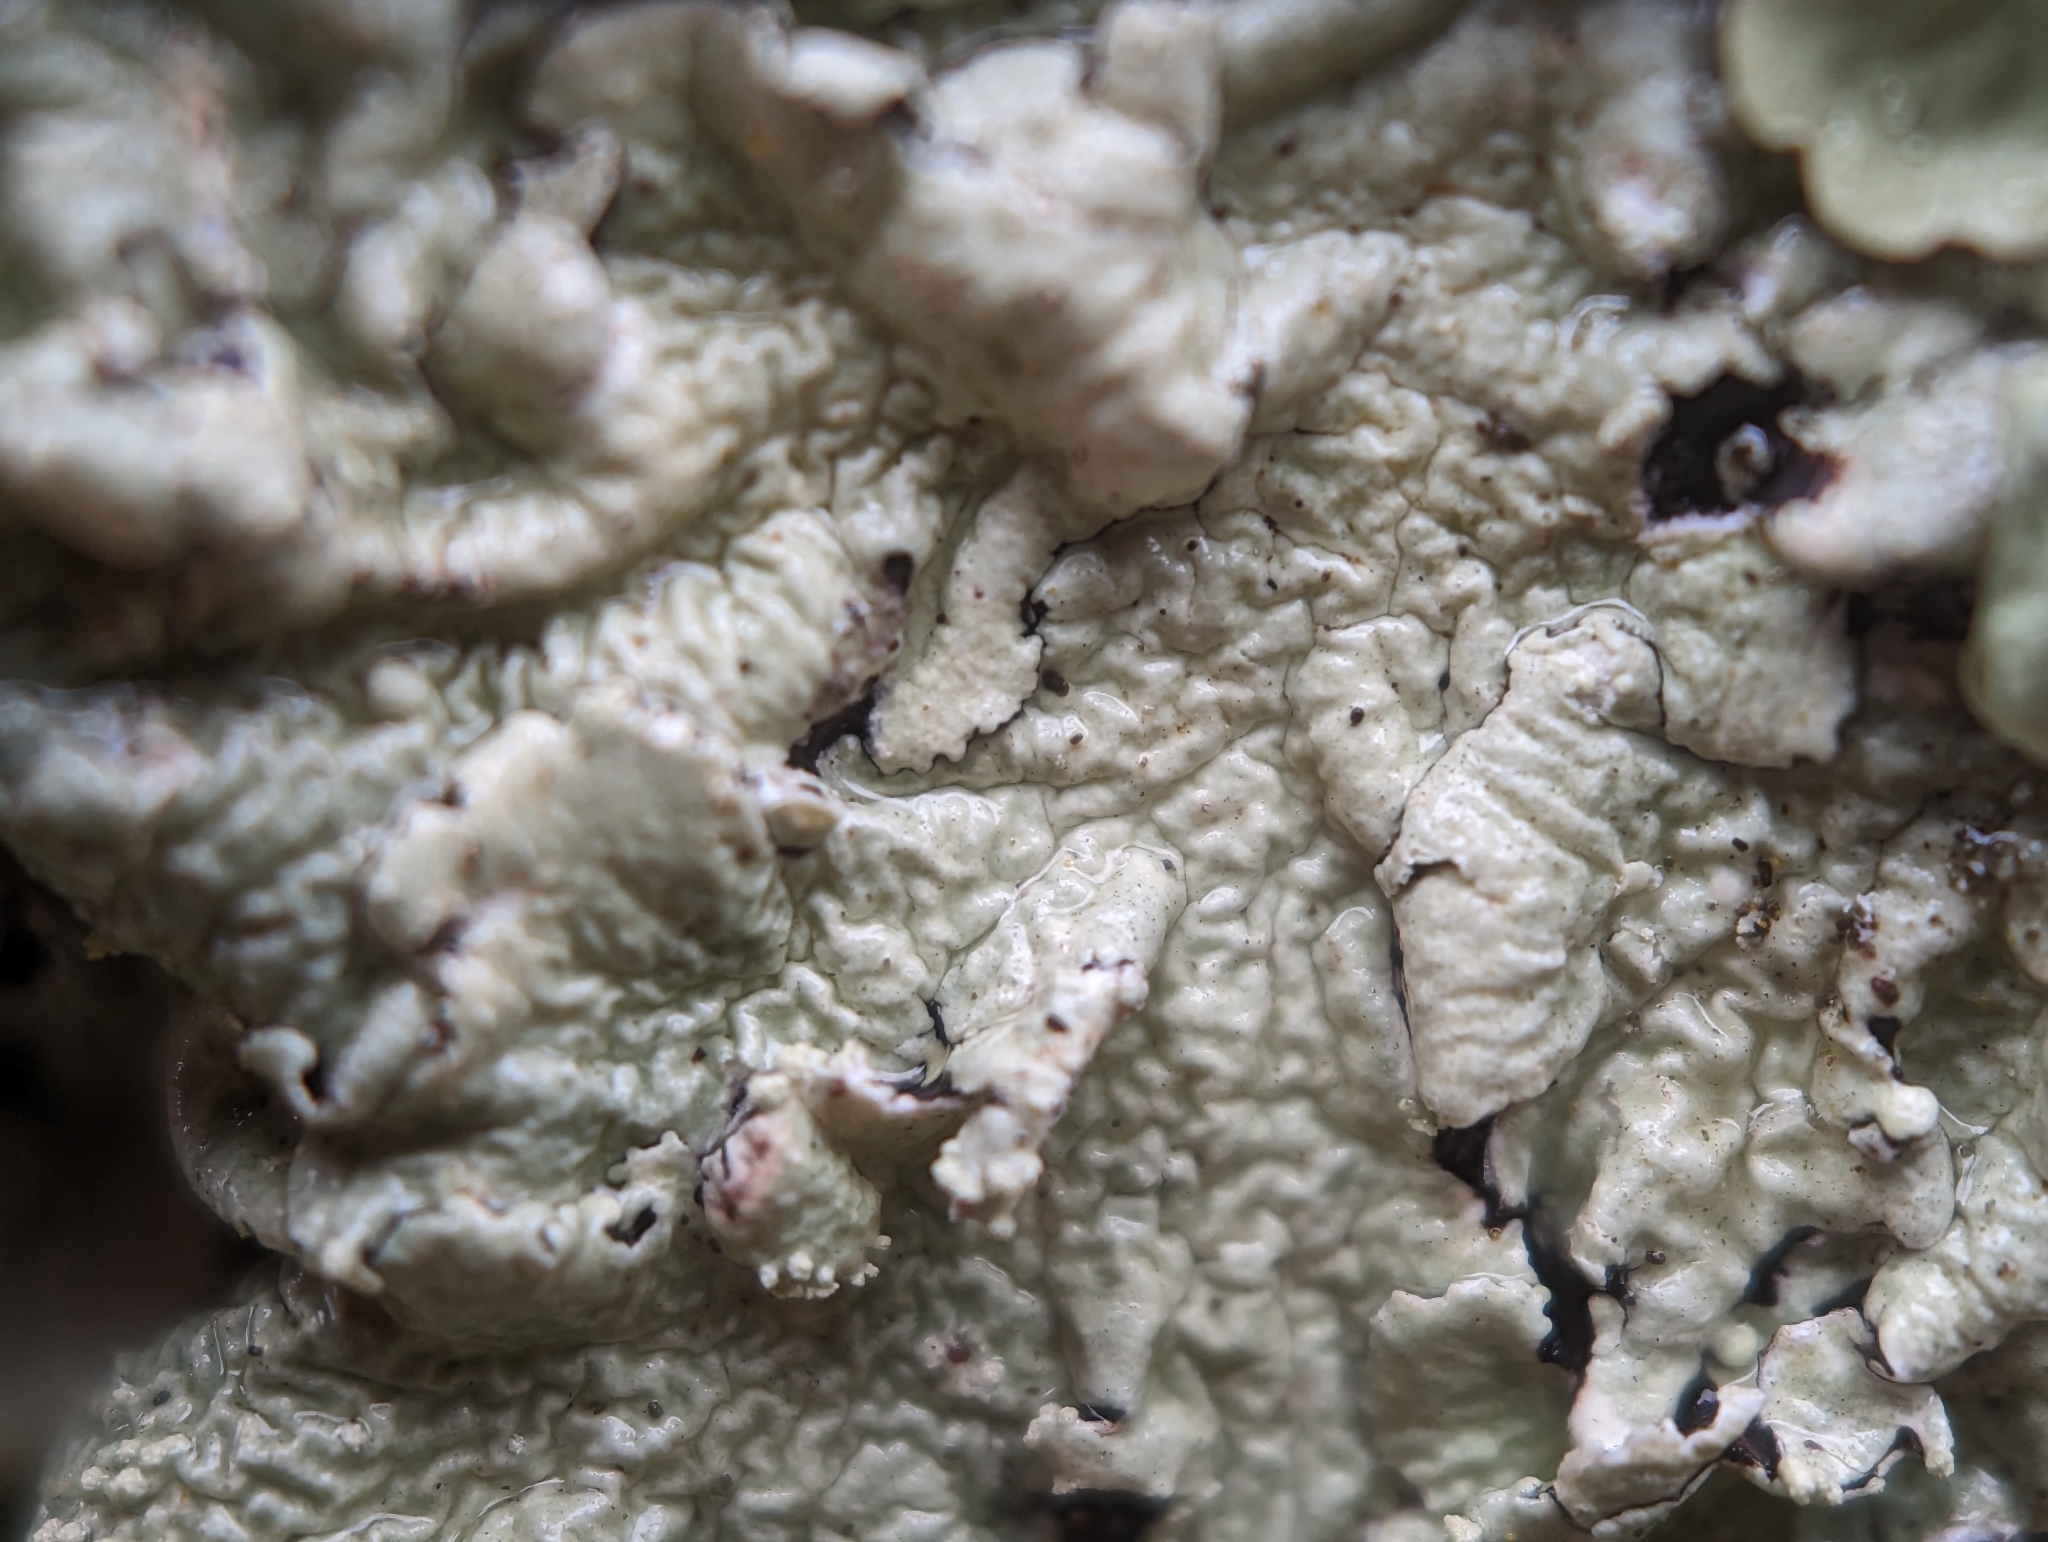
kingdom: Fungi
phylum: Ascomycota
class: Lecanoromycetes
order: Lecanorales
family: Parmeliaceae
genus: Flavoparmelia
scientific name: Flavoparmelia caperata
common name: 40-mile per hour lichen
